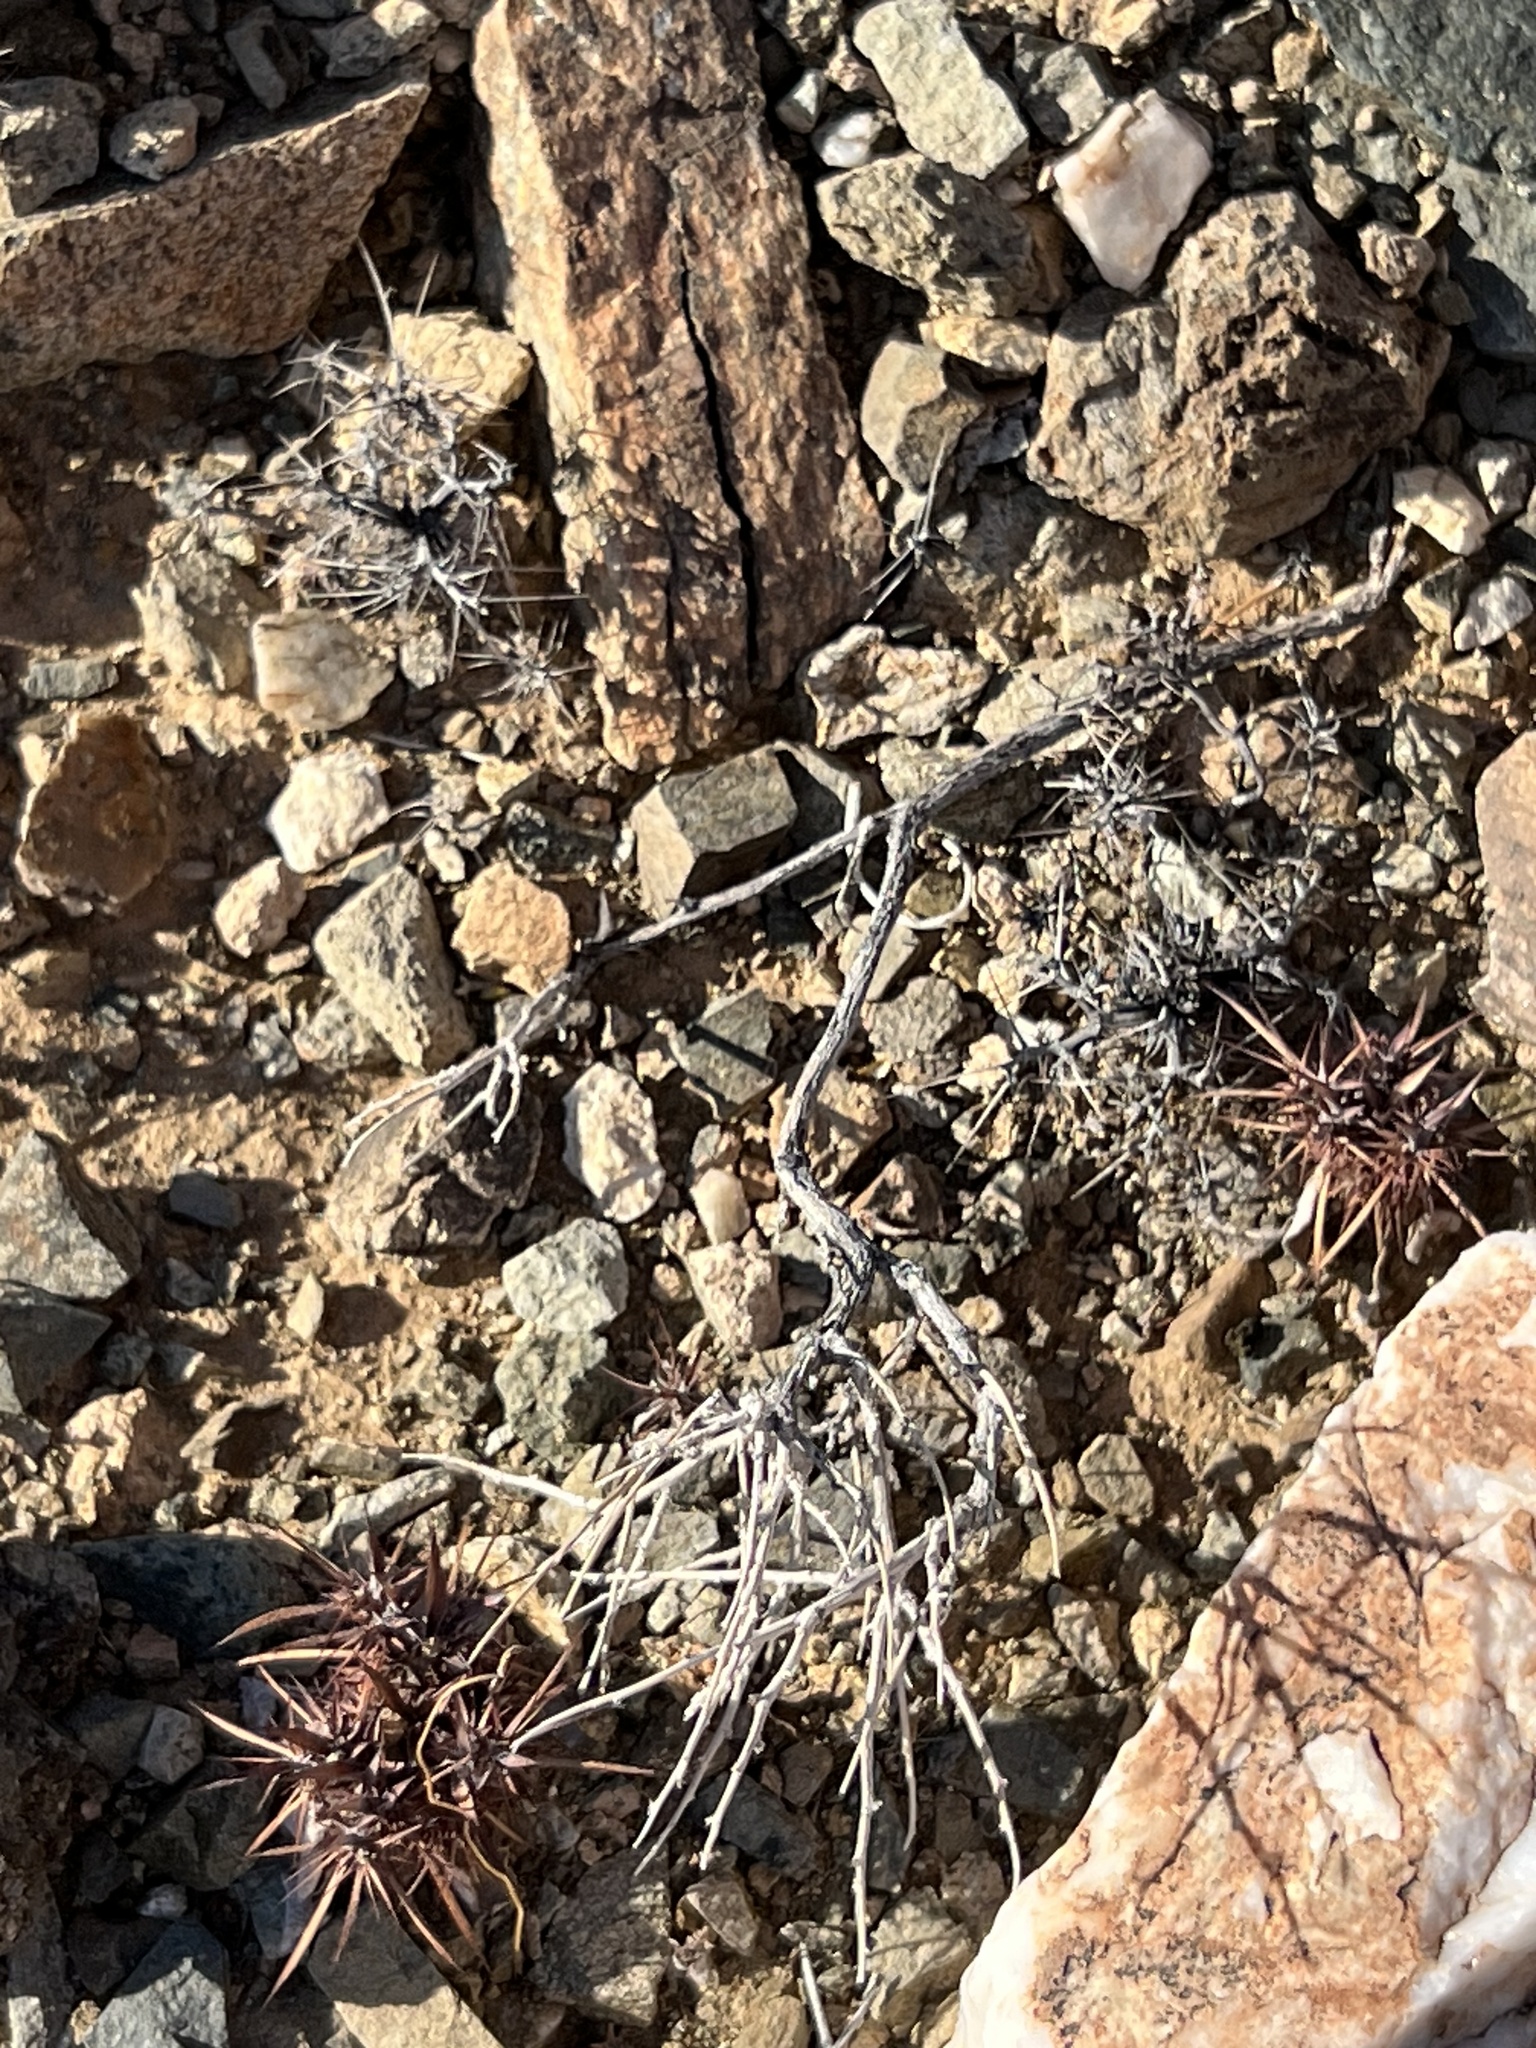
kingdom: Plantae
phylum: Tracheophyta
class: Magnoliopsida
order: Caryophyllales
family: Polygonaceae
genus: Chorizanthe
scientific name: Chorizanthe rigida
